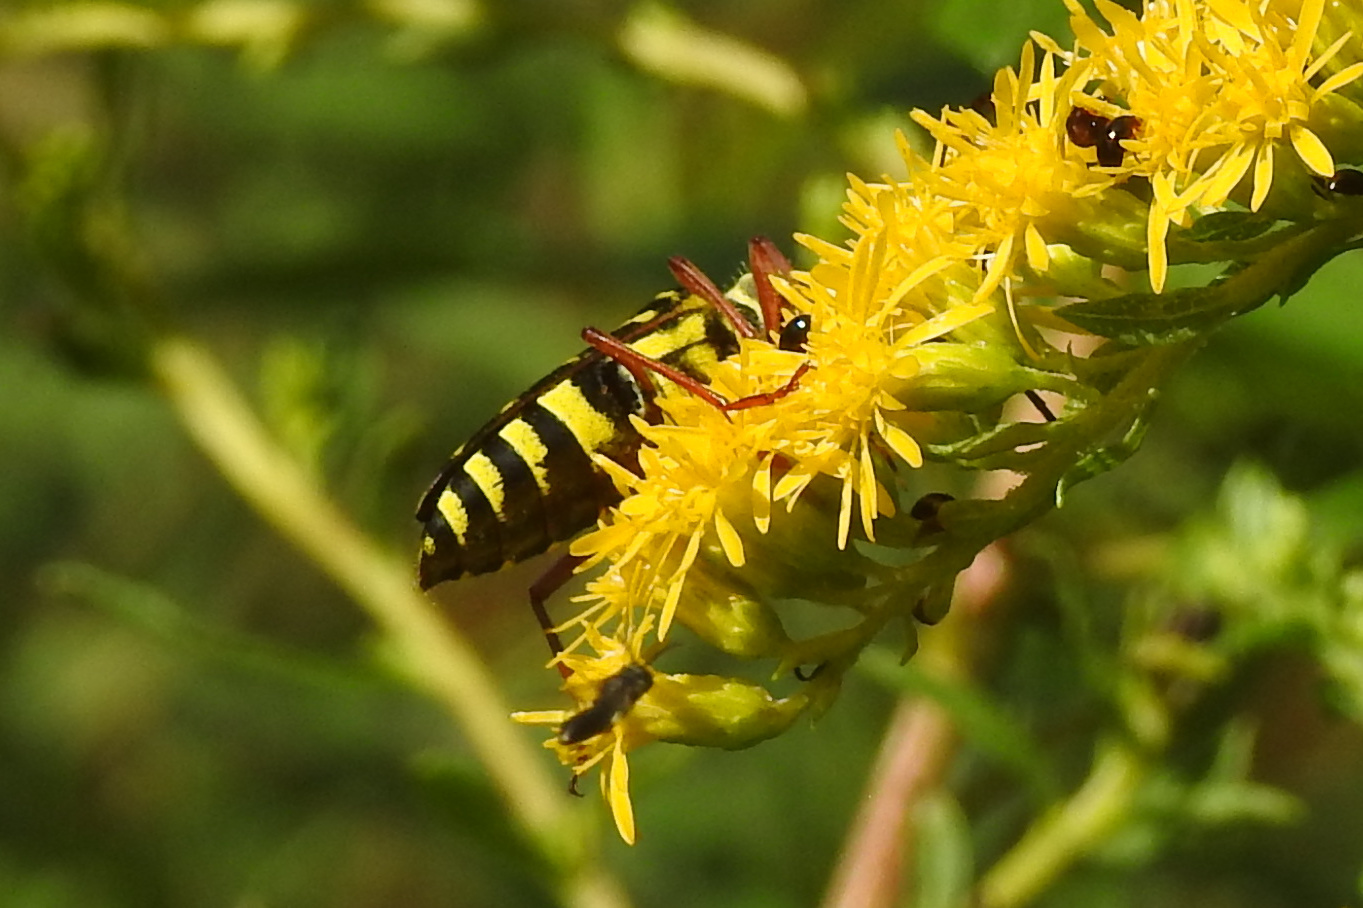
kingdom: Animalia
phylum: Arthropoda
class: Insecta
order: Coleoptera
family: Cerambycidae
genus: Megacyllene
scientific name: Megacyllene robiniae
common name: Locust borer
